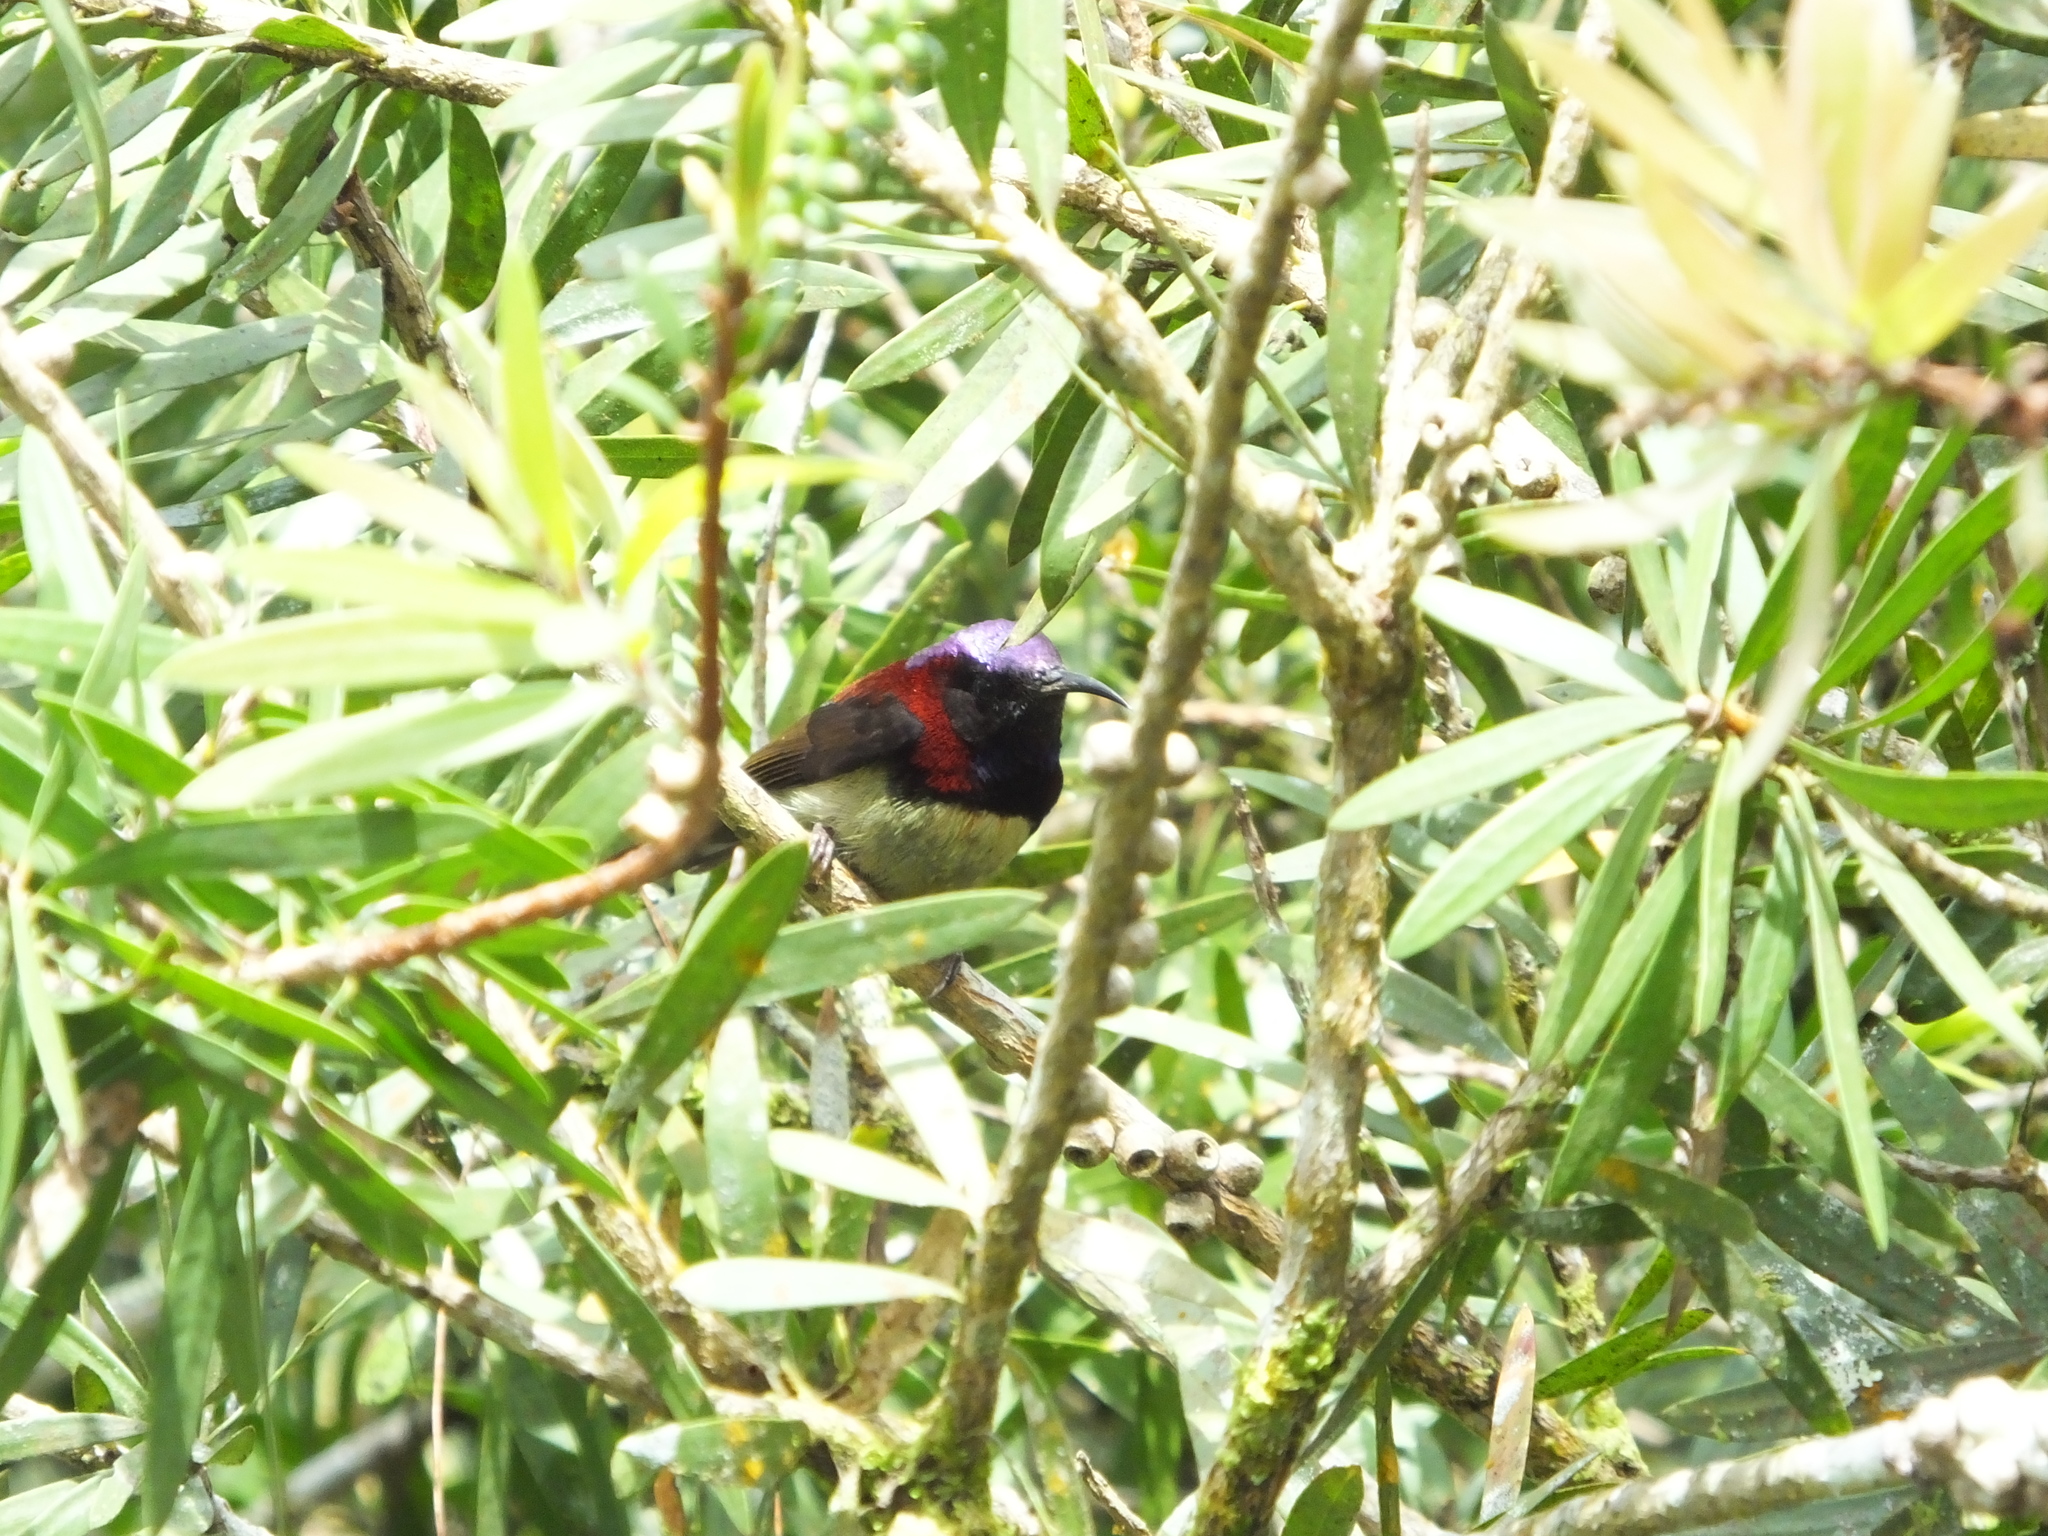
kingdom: Animalia
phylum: Chordata
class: Aves
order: Passeriformes
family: Nectariniidae
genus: Aethopyga
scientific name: Aethopyga saturata
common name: Black-throated sunbird
